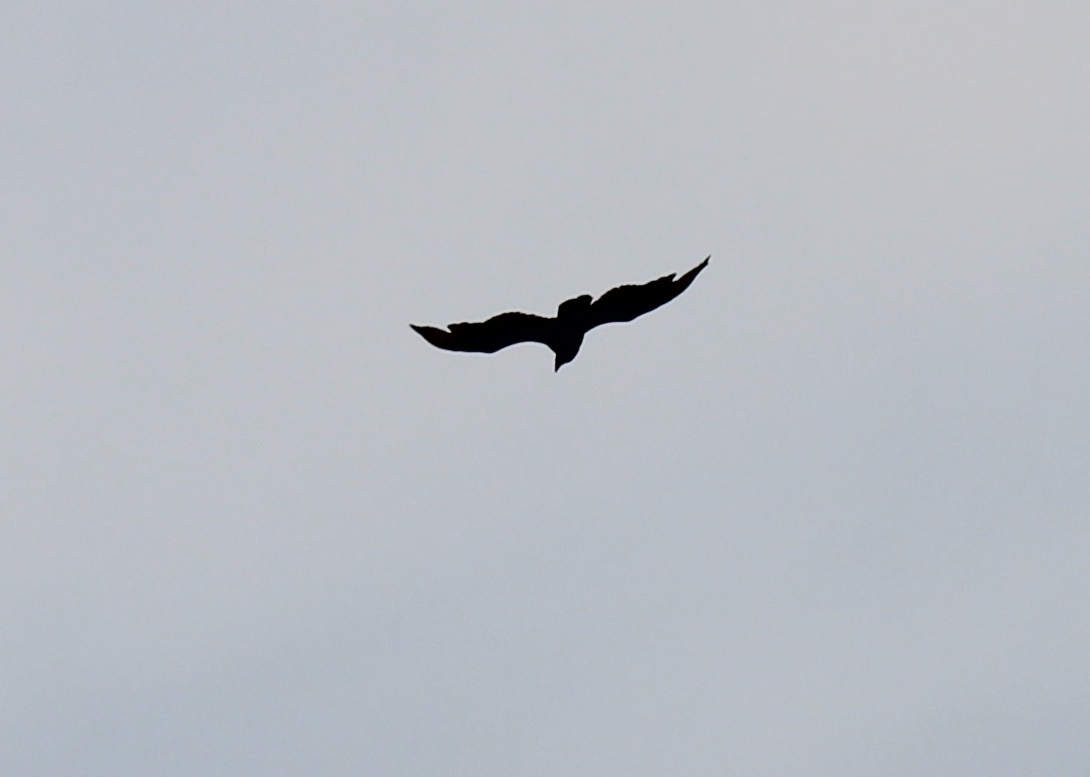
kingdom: Animalia
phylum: Chordata
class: Aves
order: Accipitriformes
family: Cathartidae
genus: Cathartes
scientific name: Cathartes aura
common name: Turkey vulture
